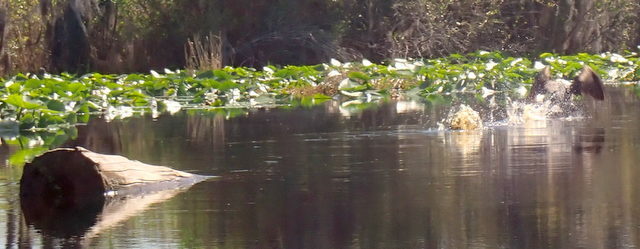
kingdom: Animalia
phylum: Chordata
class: Aves
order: Suliformes
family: Phalacrocoracidae
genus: Phalacrocorax
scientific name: Phalacrocorax auritus
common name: Double-crested cormorant
